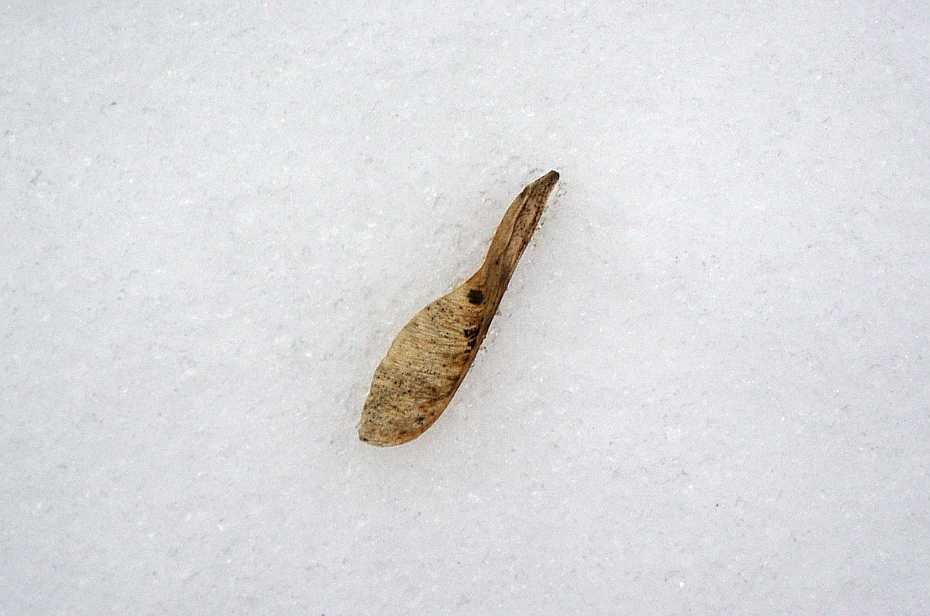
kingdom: Plantae
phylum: Tracheophyta
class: Magnoliopsida
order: Sapindales
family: Sapindaceae
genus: Acer
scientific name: Acer negundo
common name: Ashleaf maple
